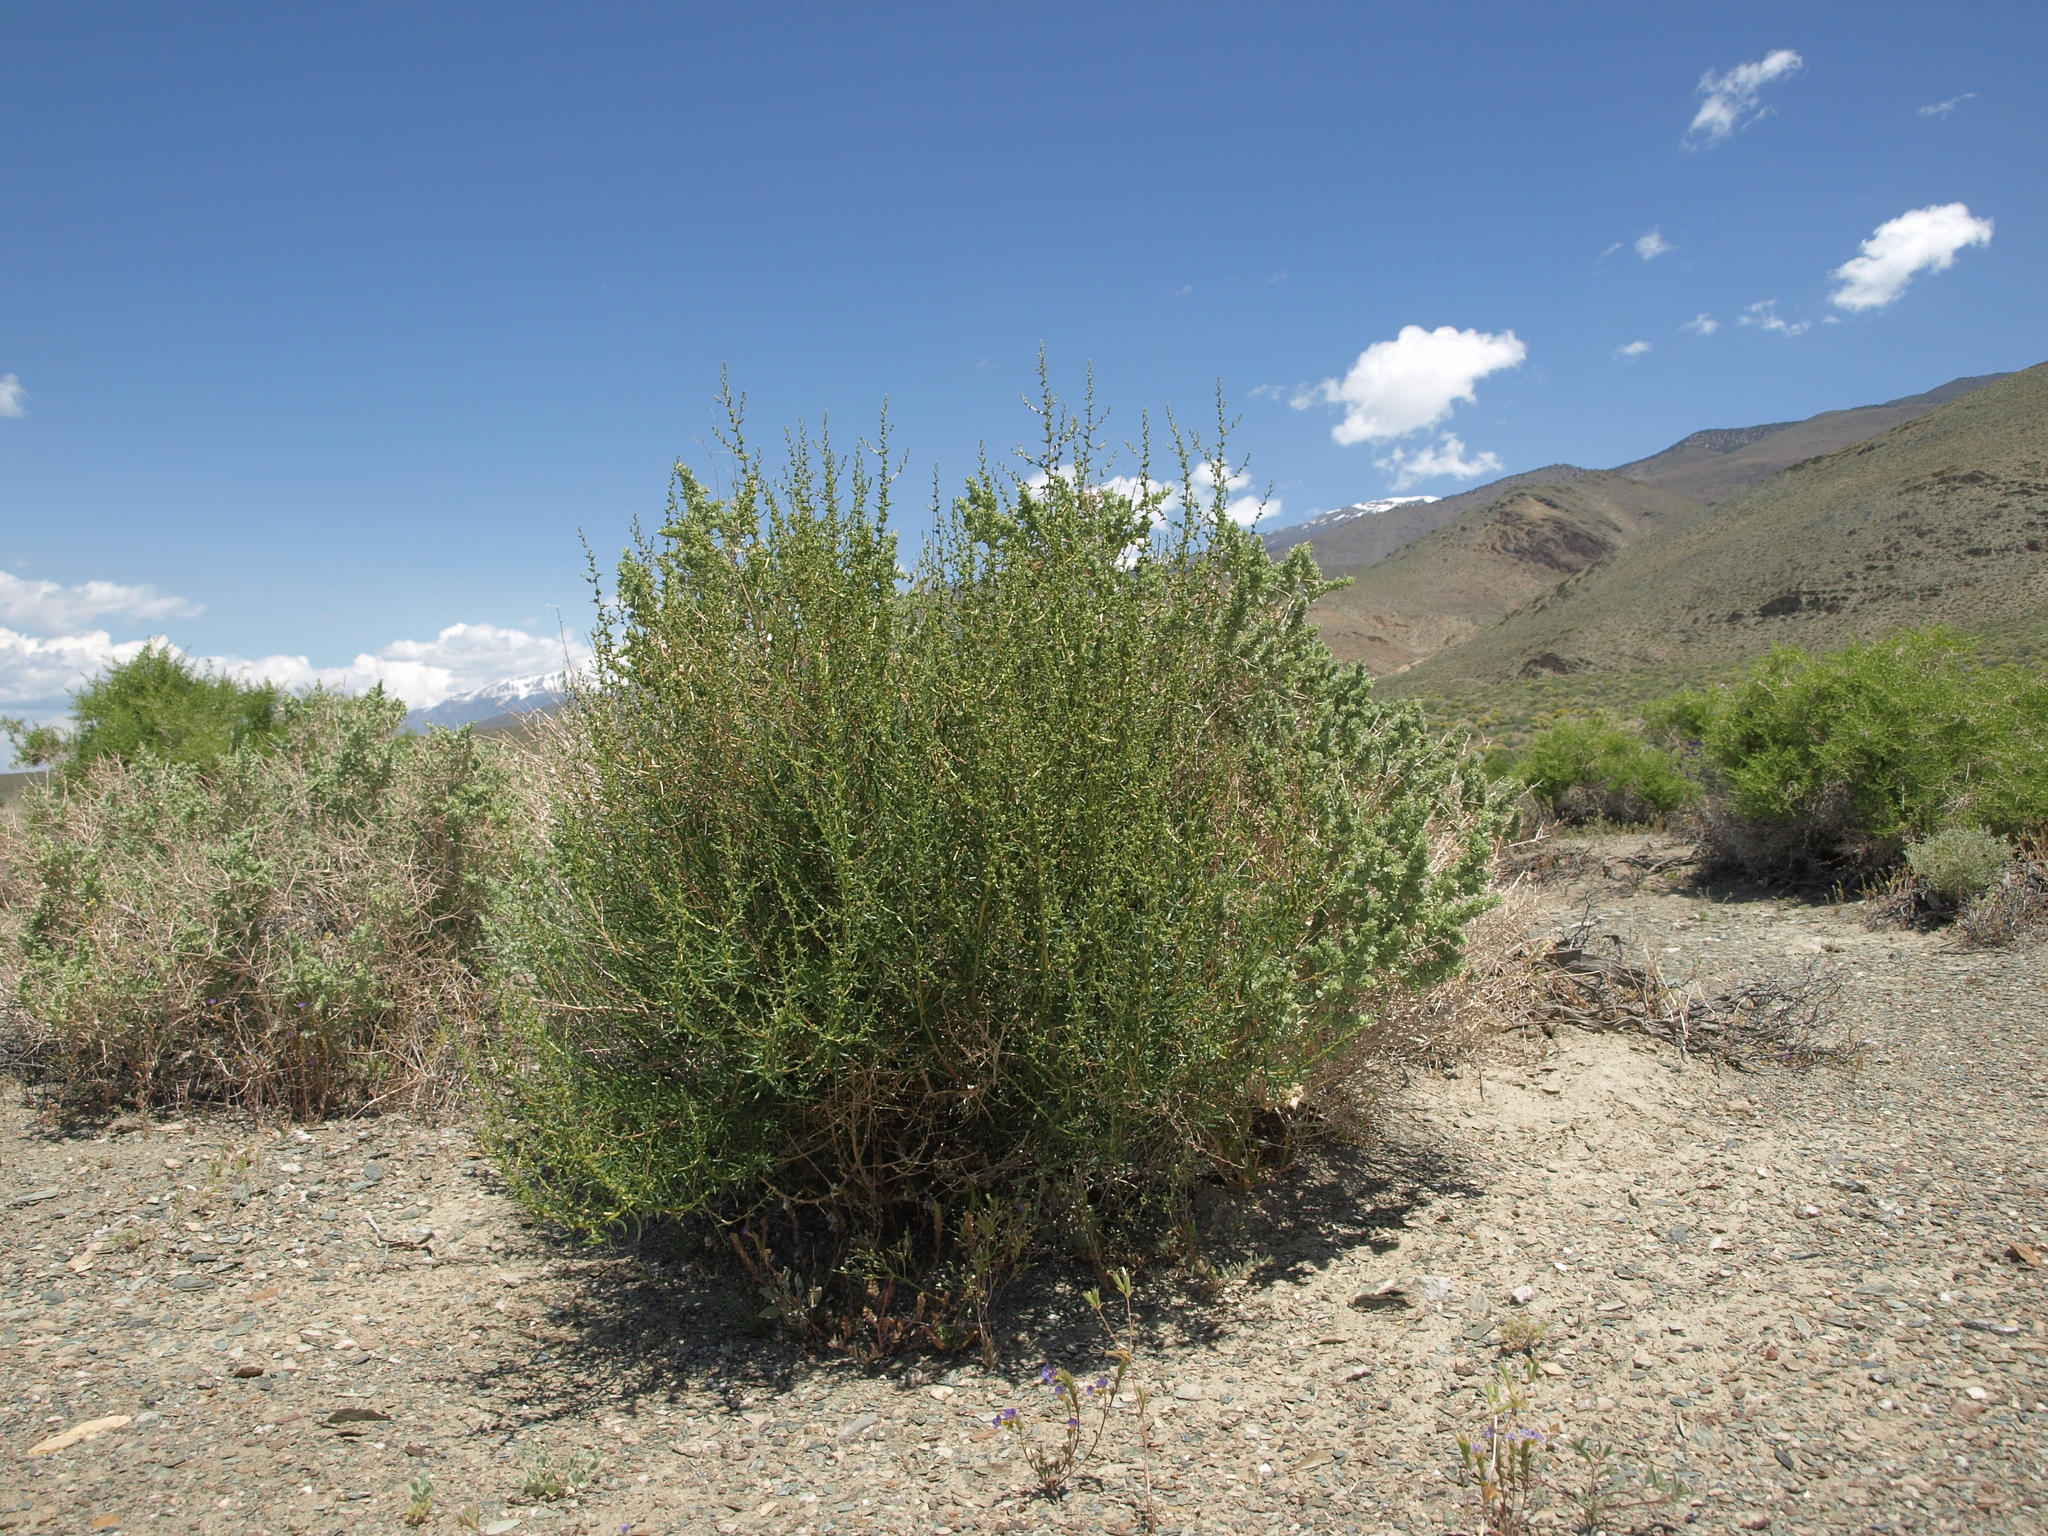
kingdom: Plantae
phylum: Tracheophyta
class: Magnoliopsida
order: Caryophyllales
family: Amaranthaceae
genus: Suaeda
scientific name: Suaeda nigra
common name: Bush seepweed
